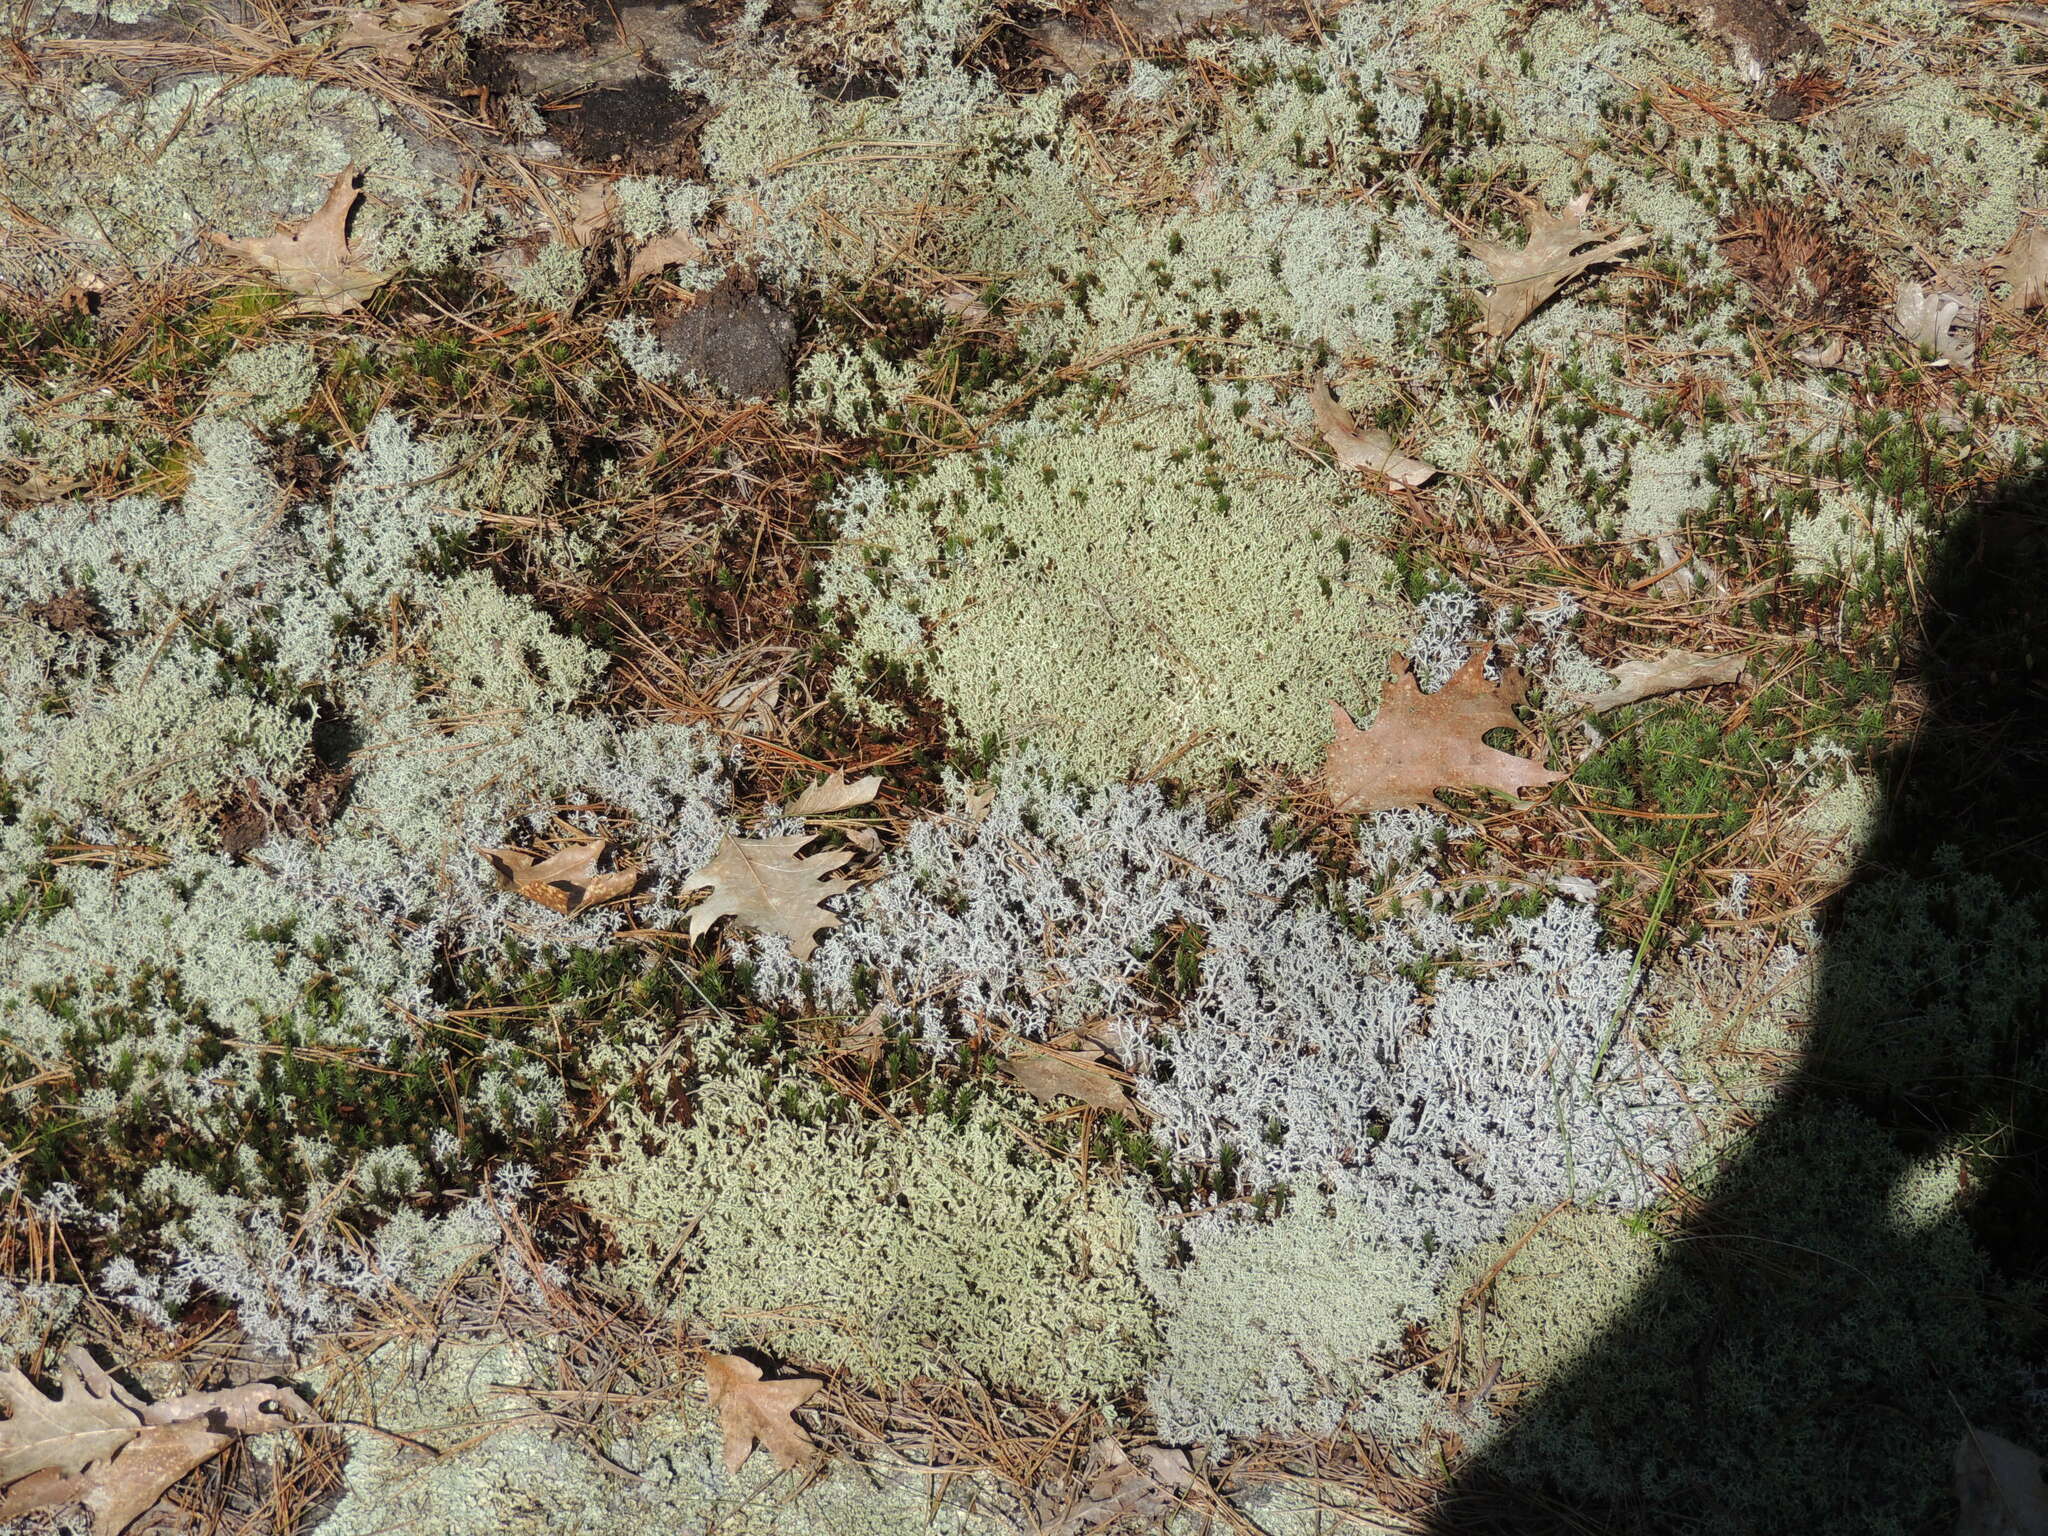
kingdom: Fungi
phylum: Ascomycota
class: Lecanoromycetes
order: Lecanorales
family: Cladoniaceae
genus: Cladonia
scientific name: Cladonia rangiferina
